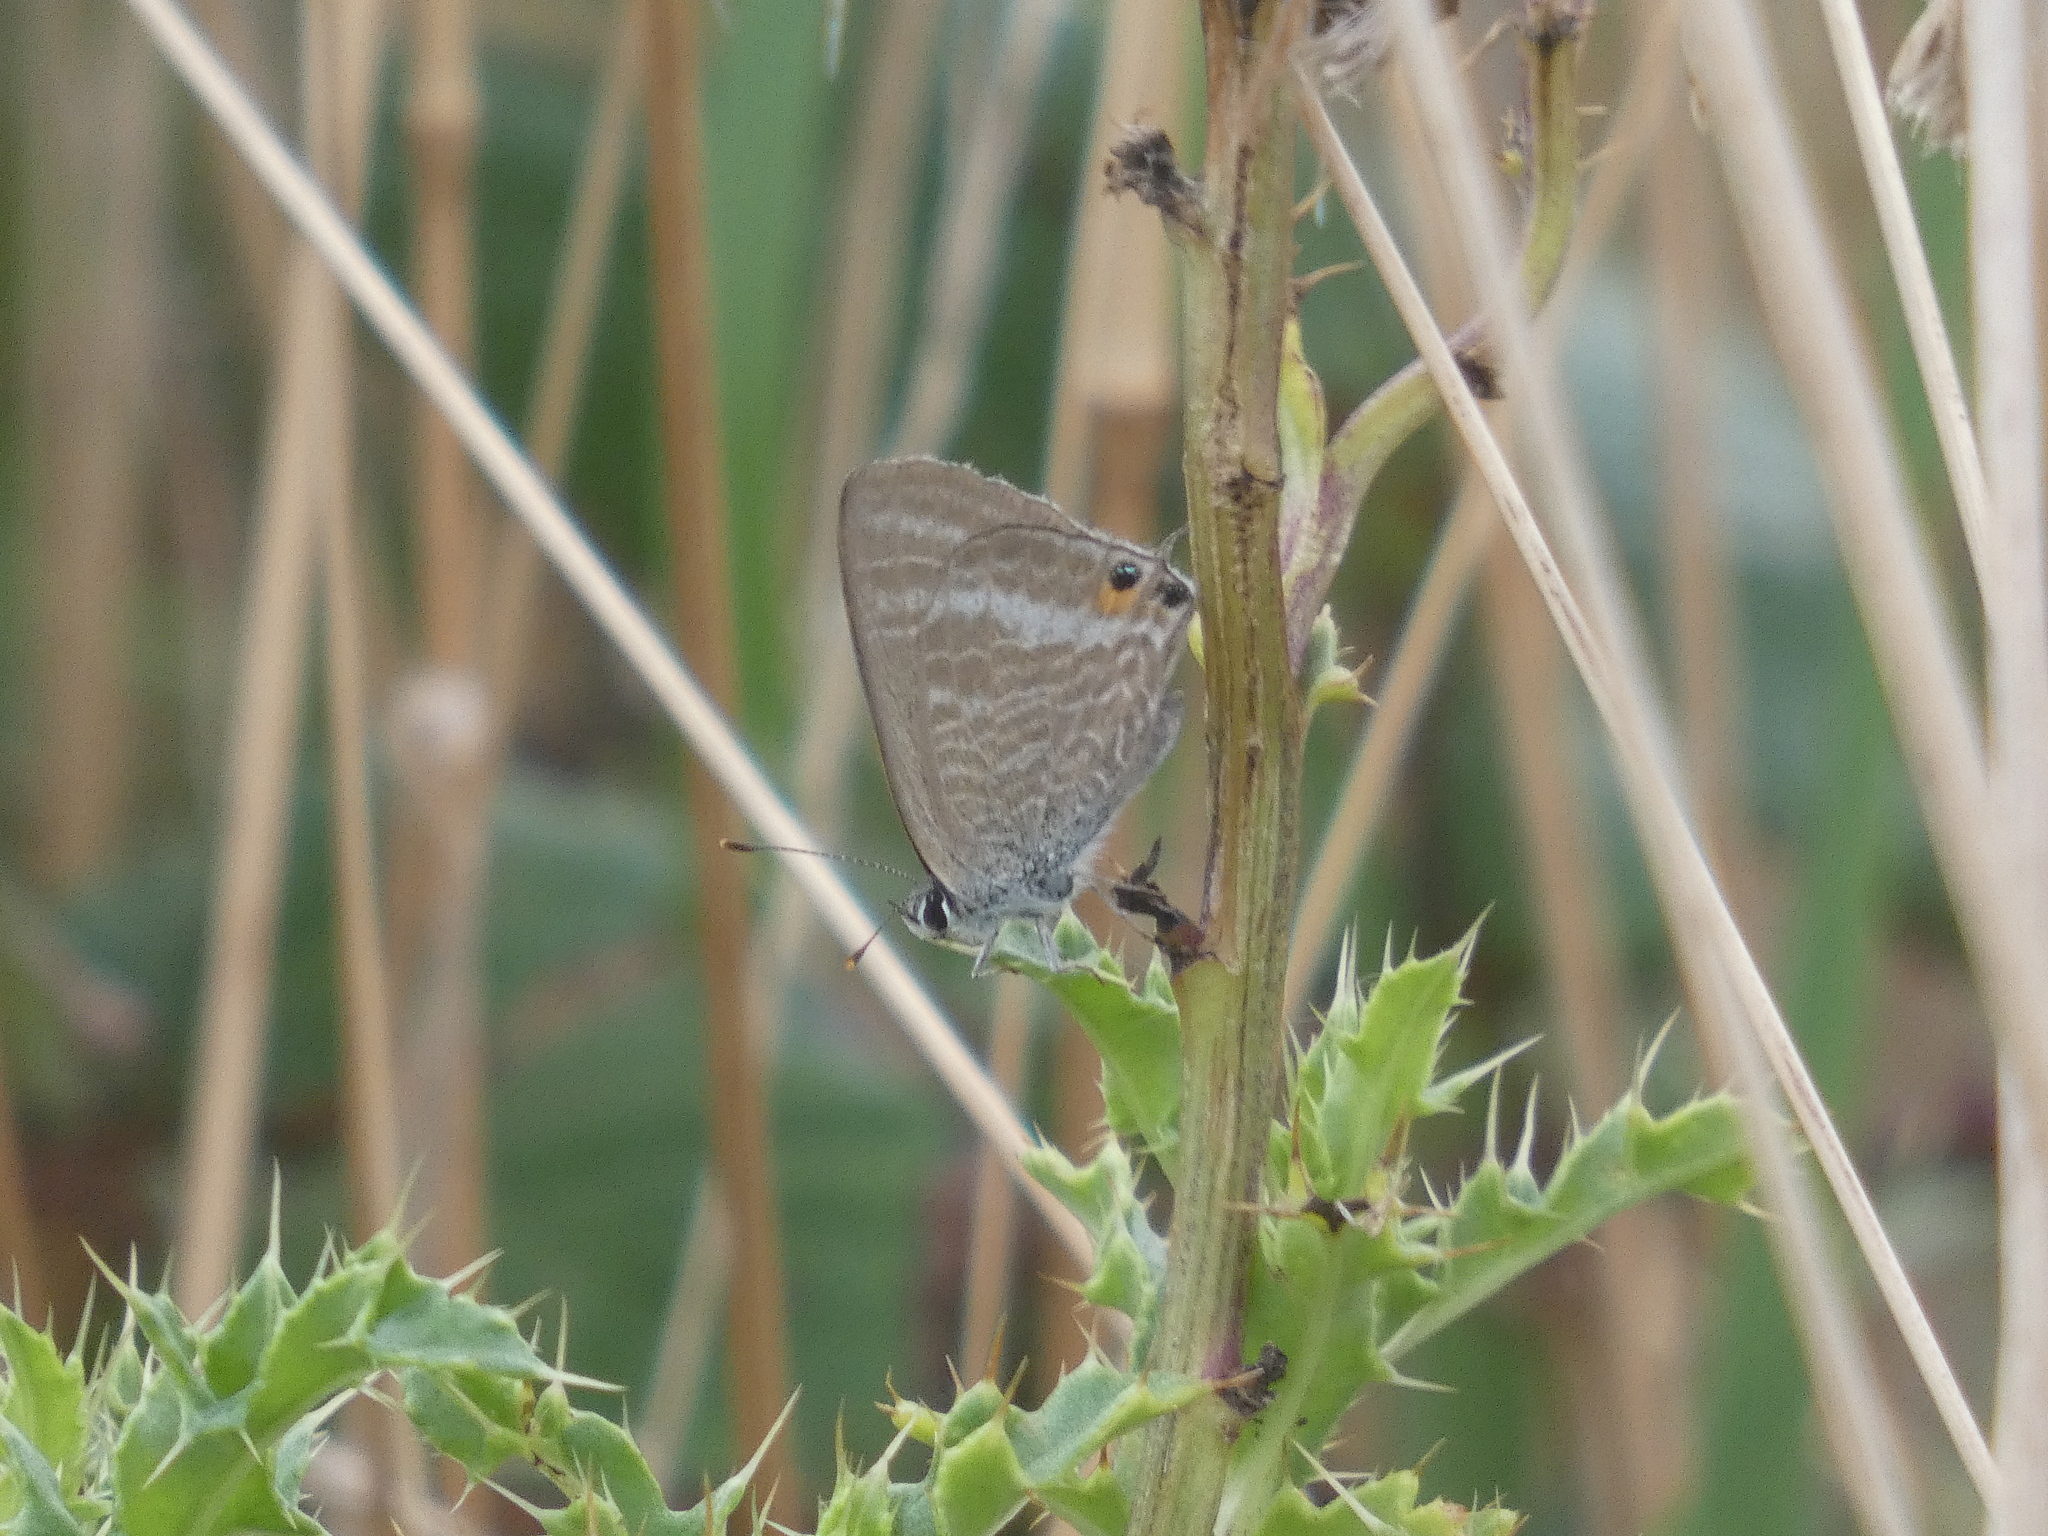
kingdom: Animalia
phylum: Arthropoda
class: Insecta
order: Lepidoptera
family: Lycaenidae
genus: Lampides
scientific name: Lampides boeticus
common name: Long-tailed blue
